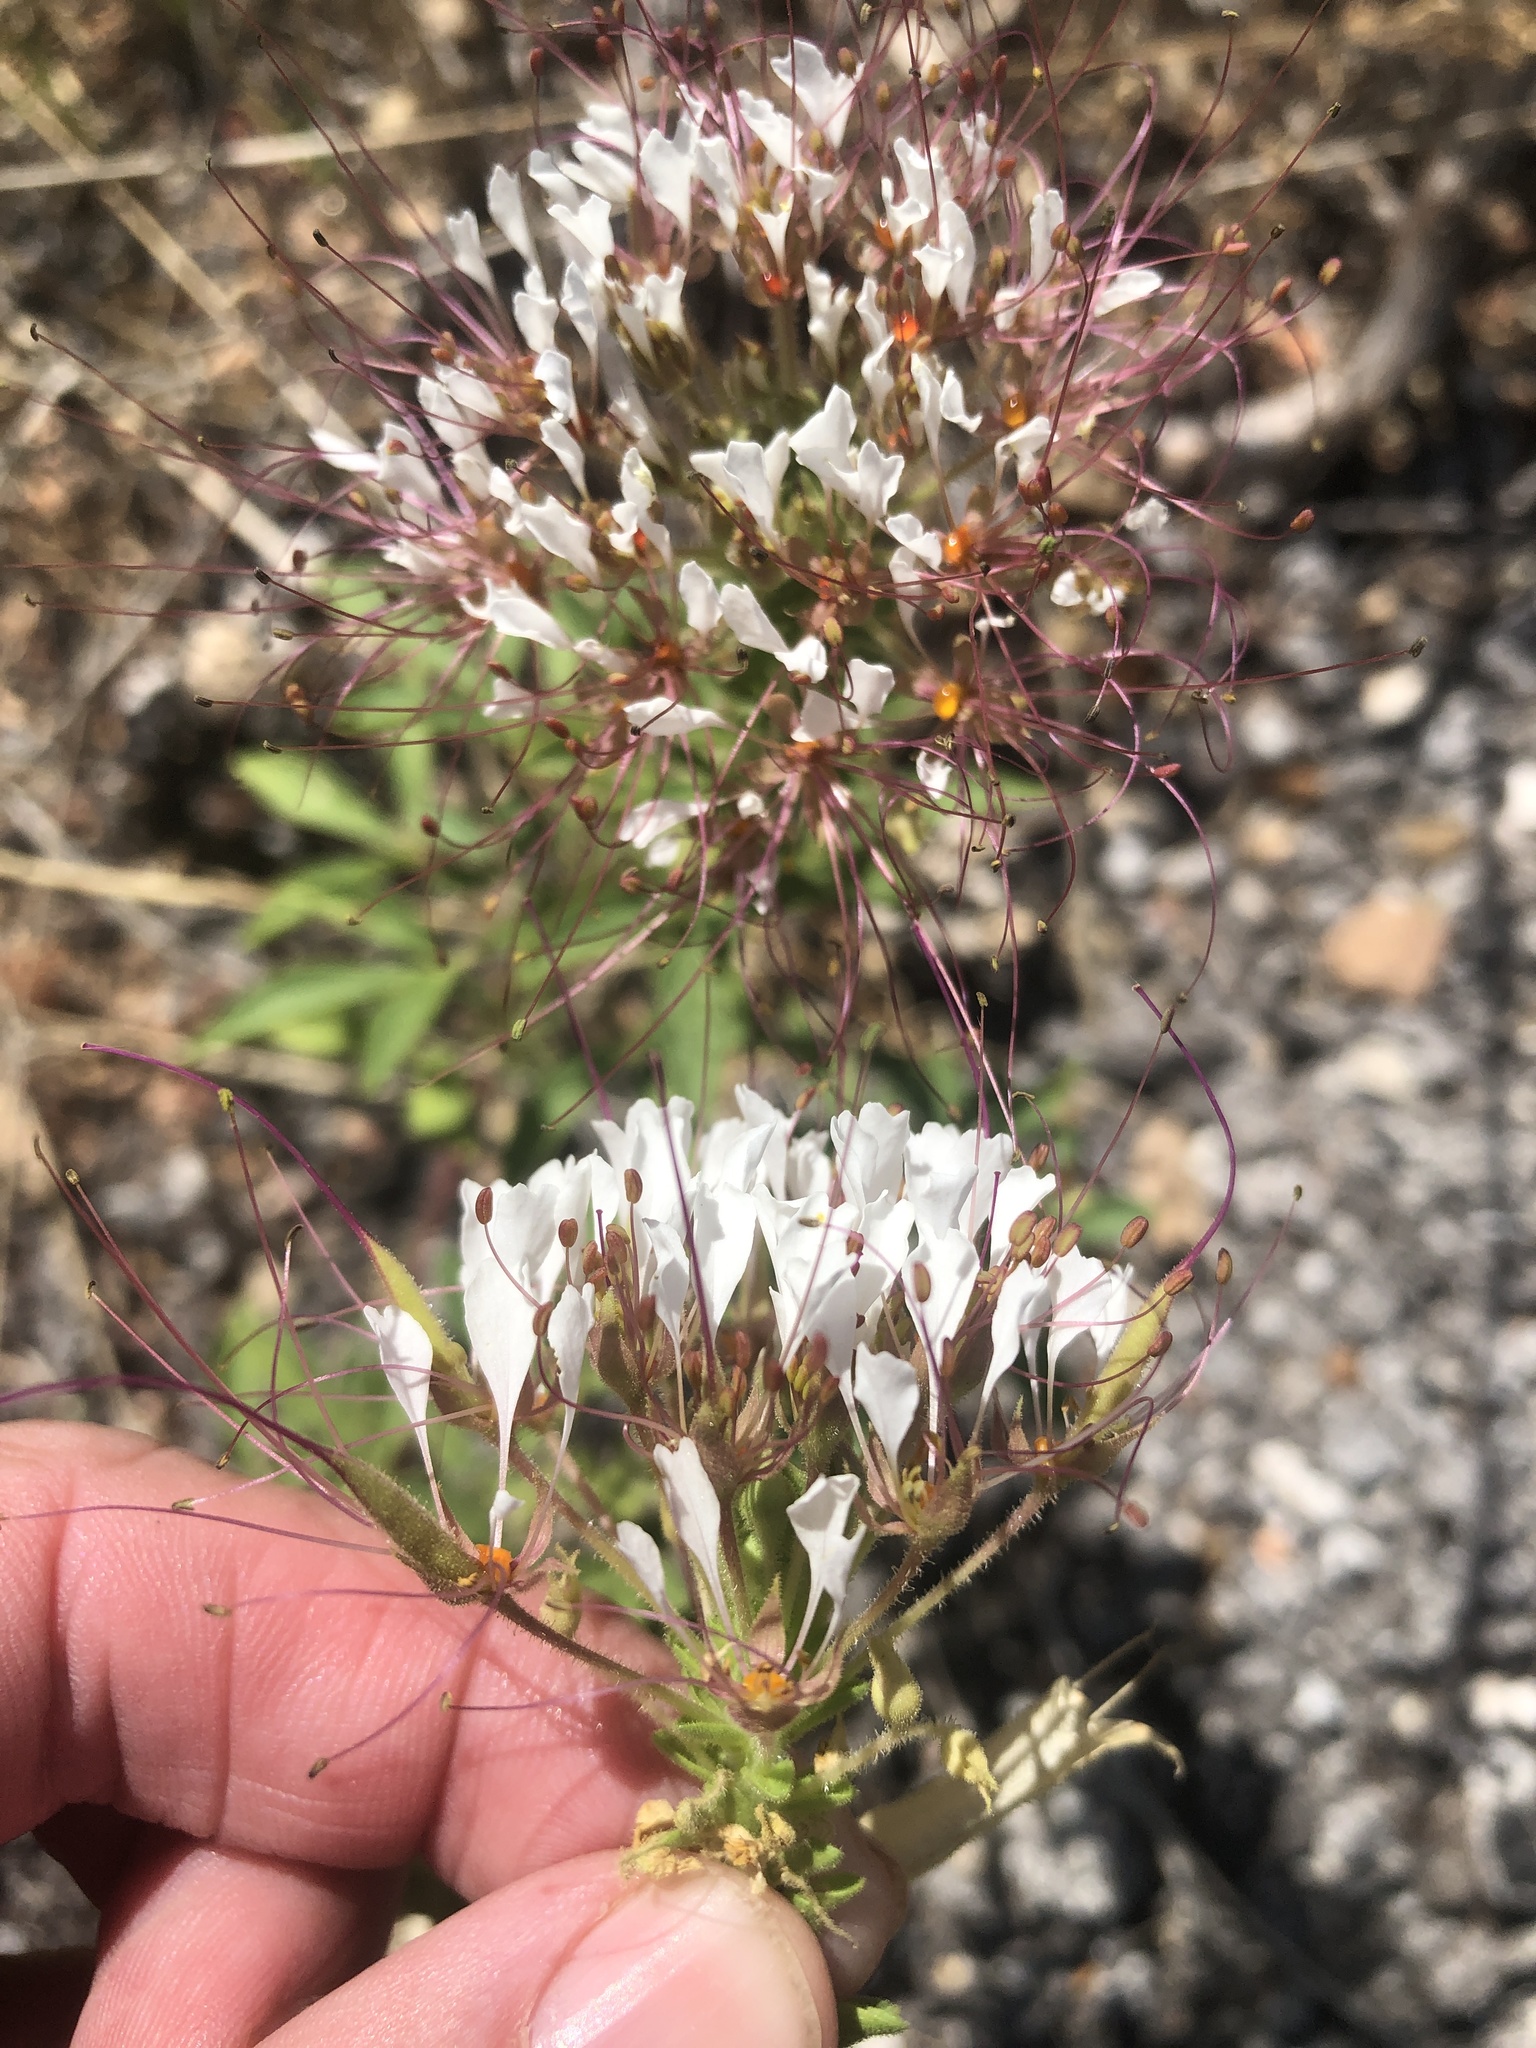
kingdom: Plantae
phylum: Tracheophyta
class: Magnoliopsida
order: Brassicales
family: Cleomaceae
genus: Polanisia
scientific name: Polanisia dodecandra
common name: Clammyweed
